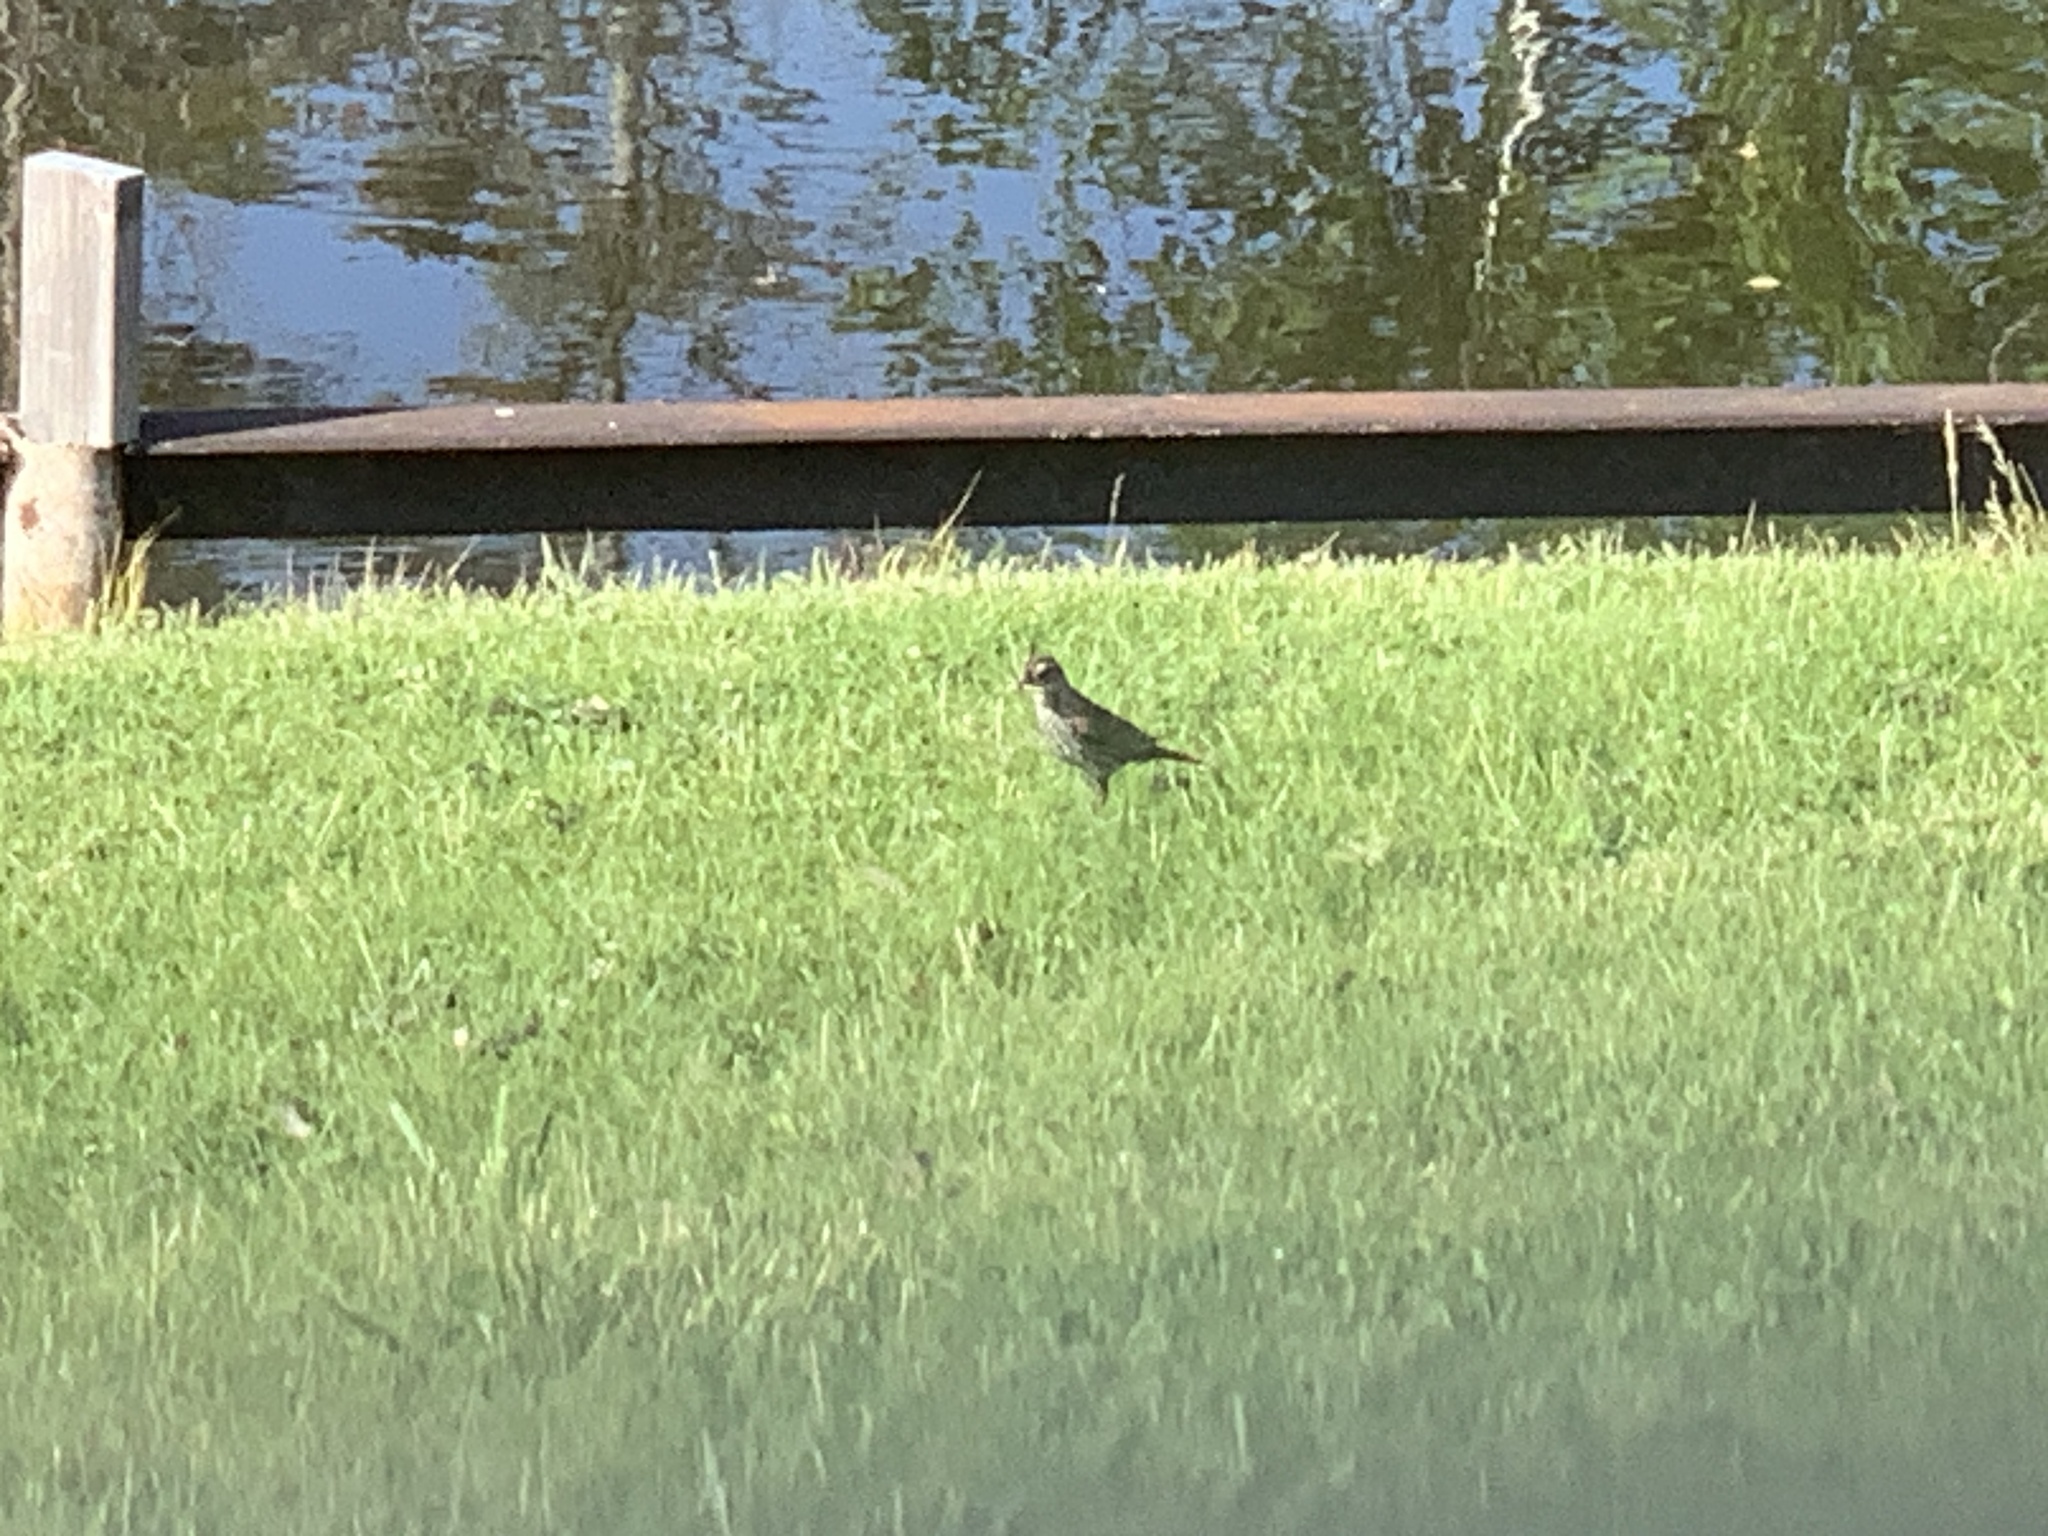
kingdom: Animalia
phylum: Chordata
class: Aves
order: Passeriformes
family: Icteridae
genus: Agelaius
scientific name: Agelaius phoeniceus
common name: Red-winged blackbird
